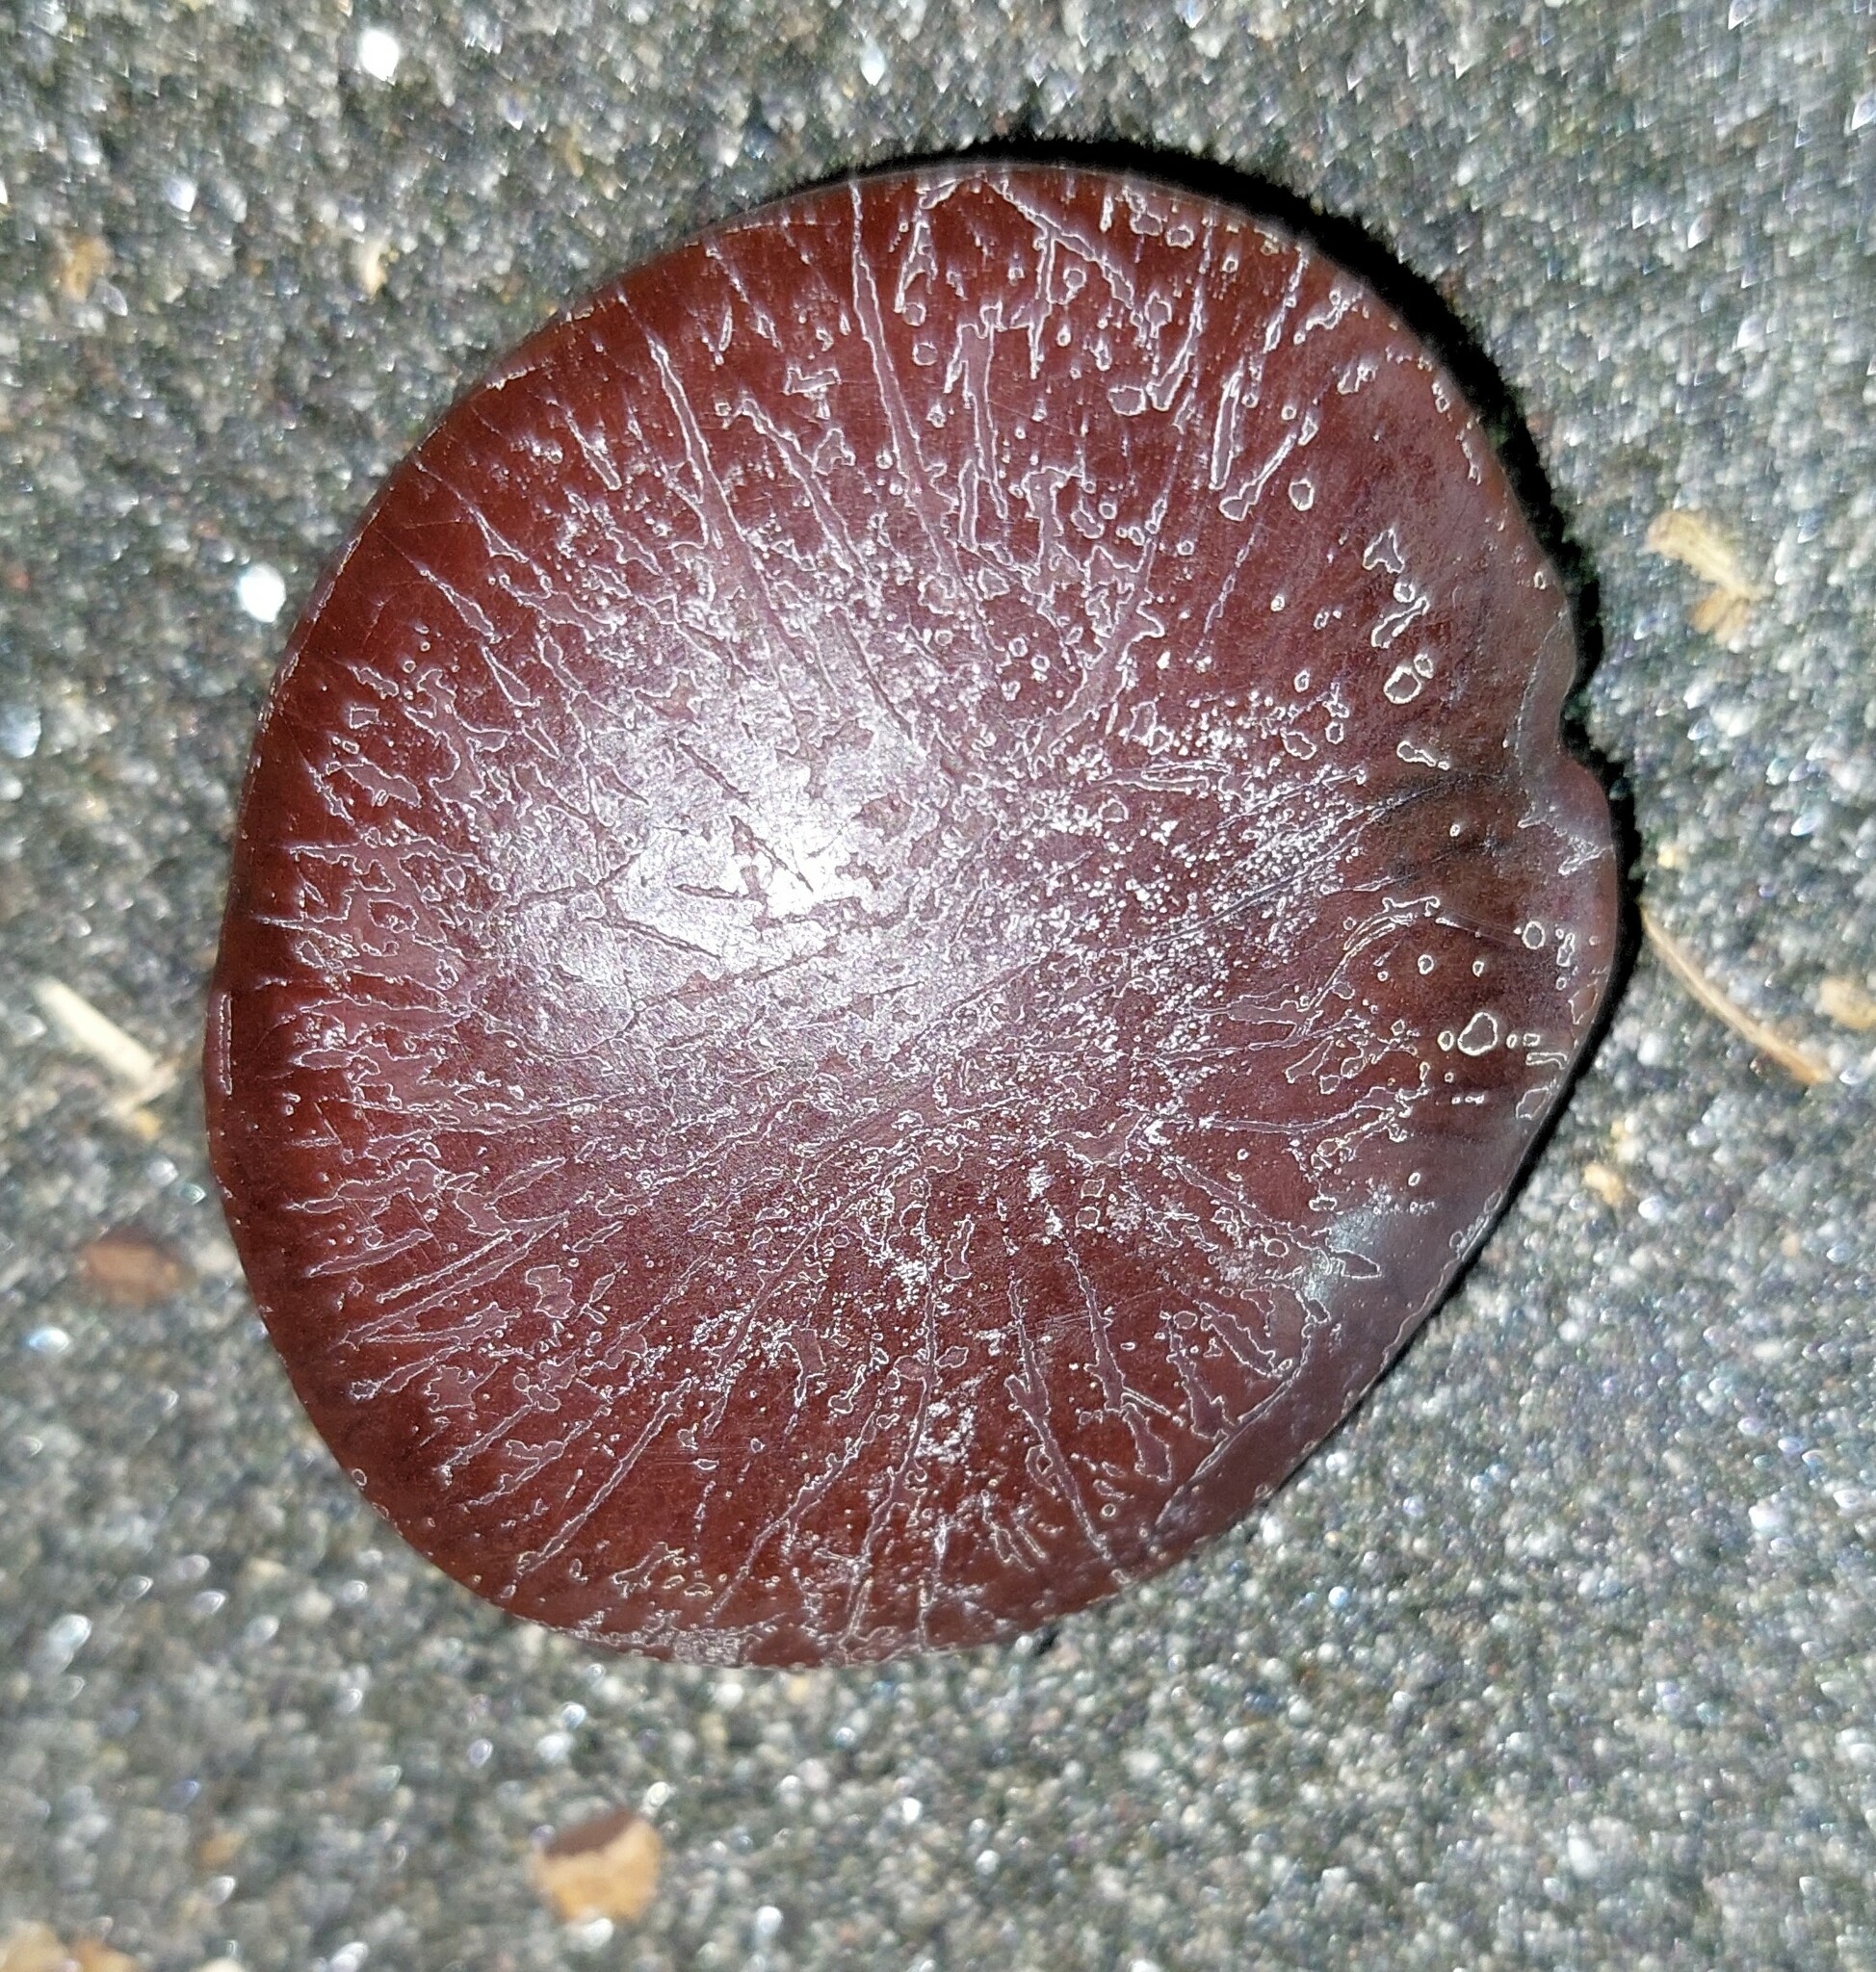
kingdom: Plantae
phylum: Tracheophyta
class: Magnoliopsida
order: Fabales
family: Fabaceae
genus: Entada
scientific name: Entada phaseoloides
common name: Matchbox-bean
